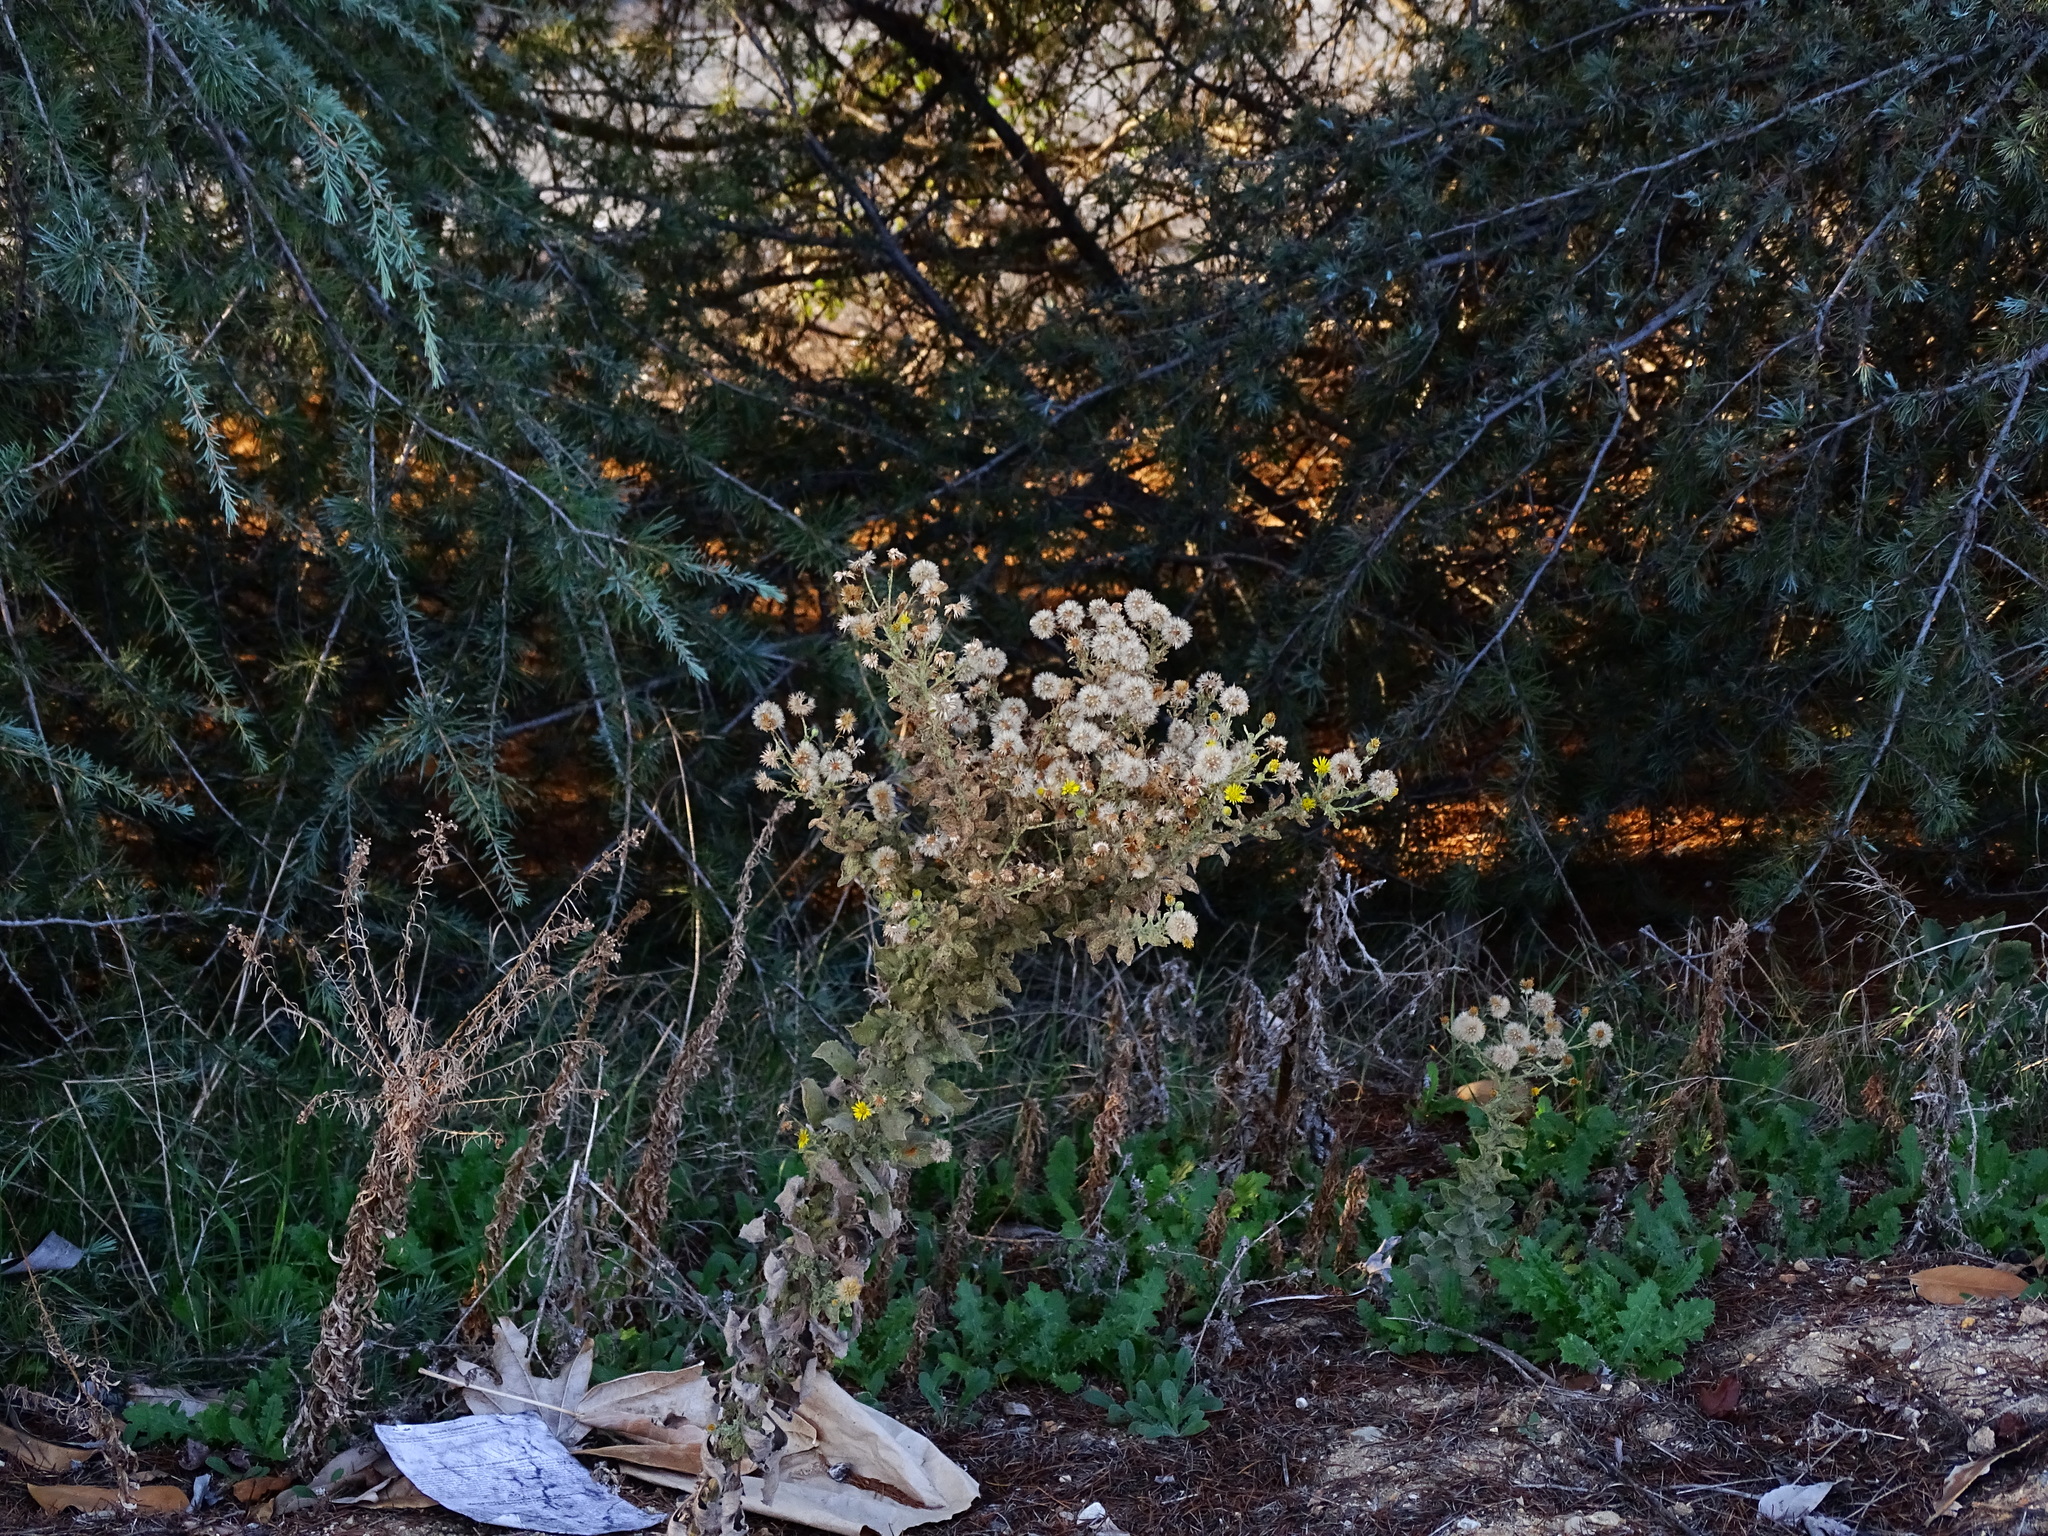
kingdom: Plantae
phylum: Tracheophyta
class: Magnoliopsida
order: Asterales
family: Asteraceae
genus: Heterotheca
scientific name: Heterotheca grandiflora
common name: Telegraphweed
